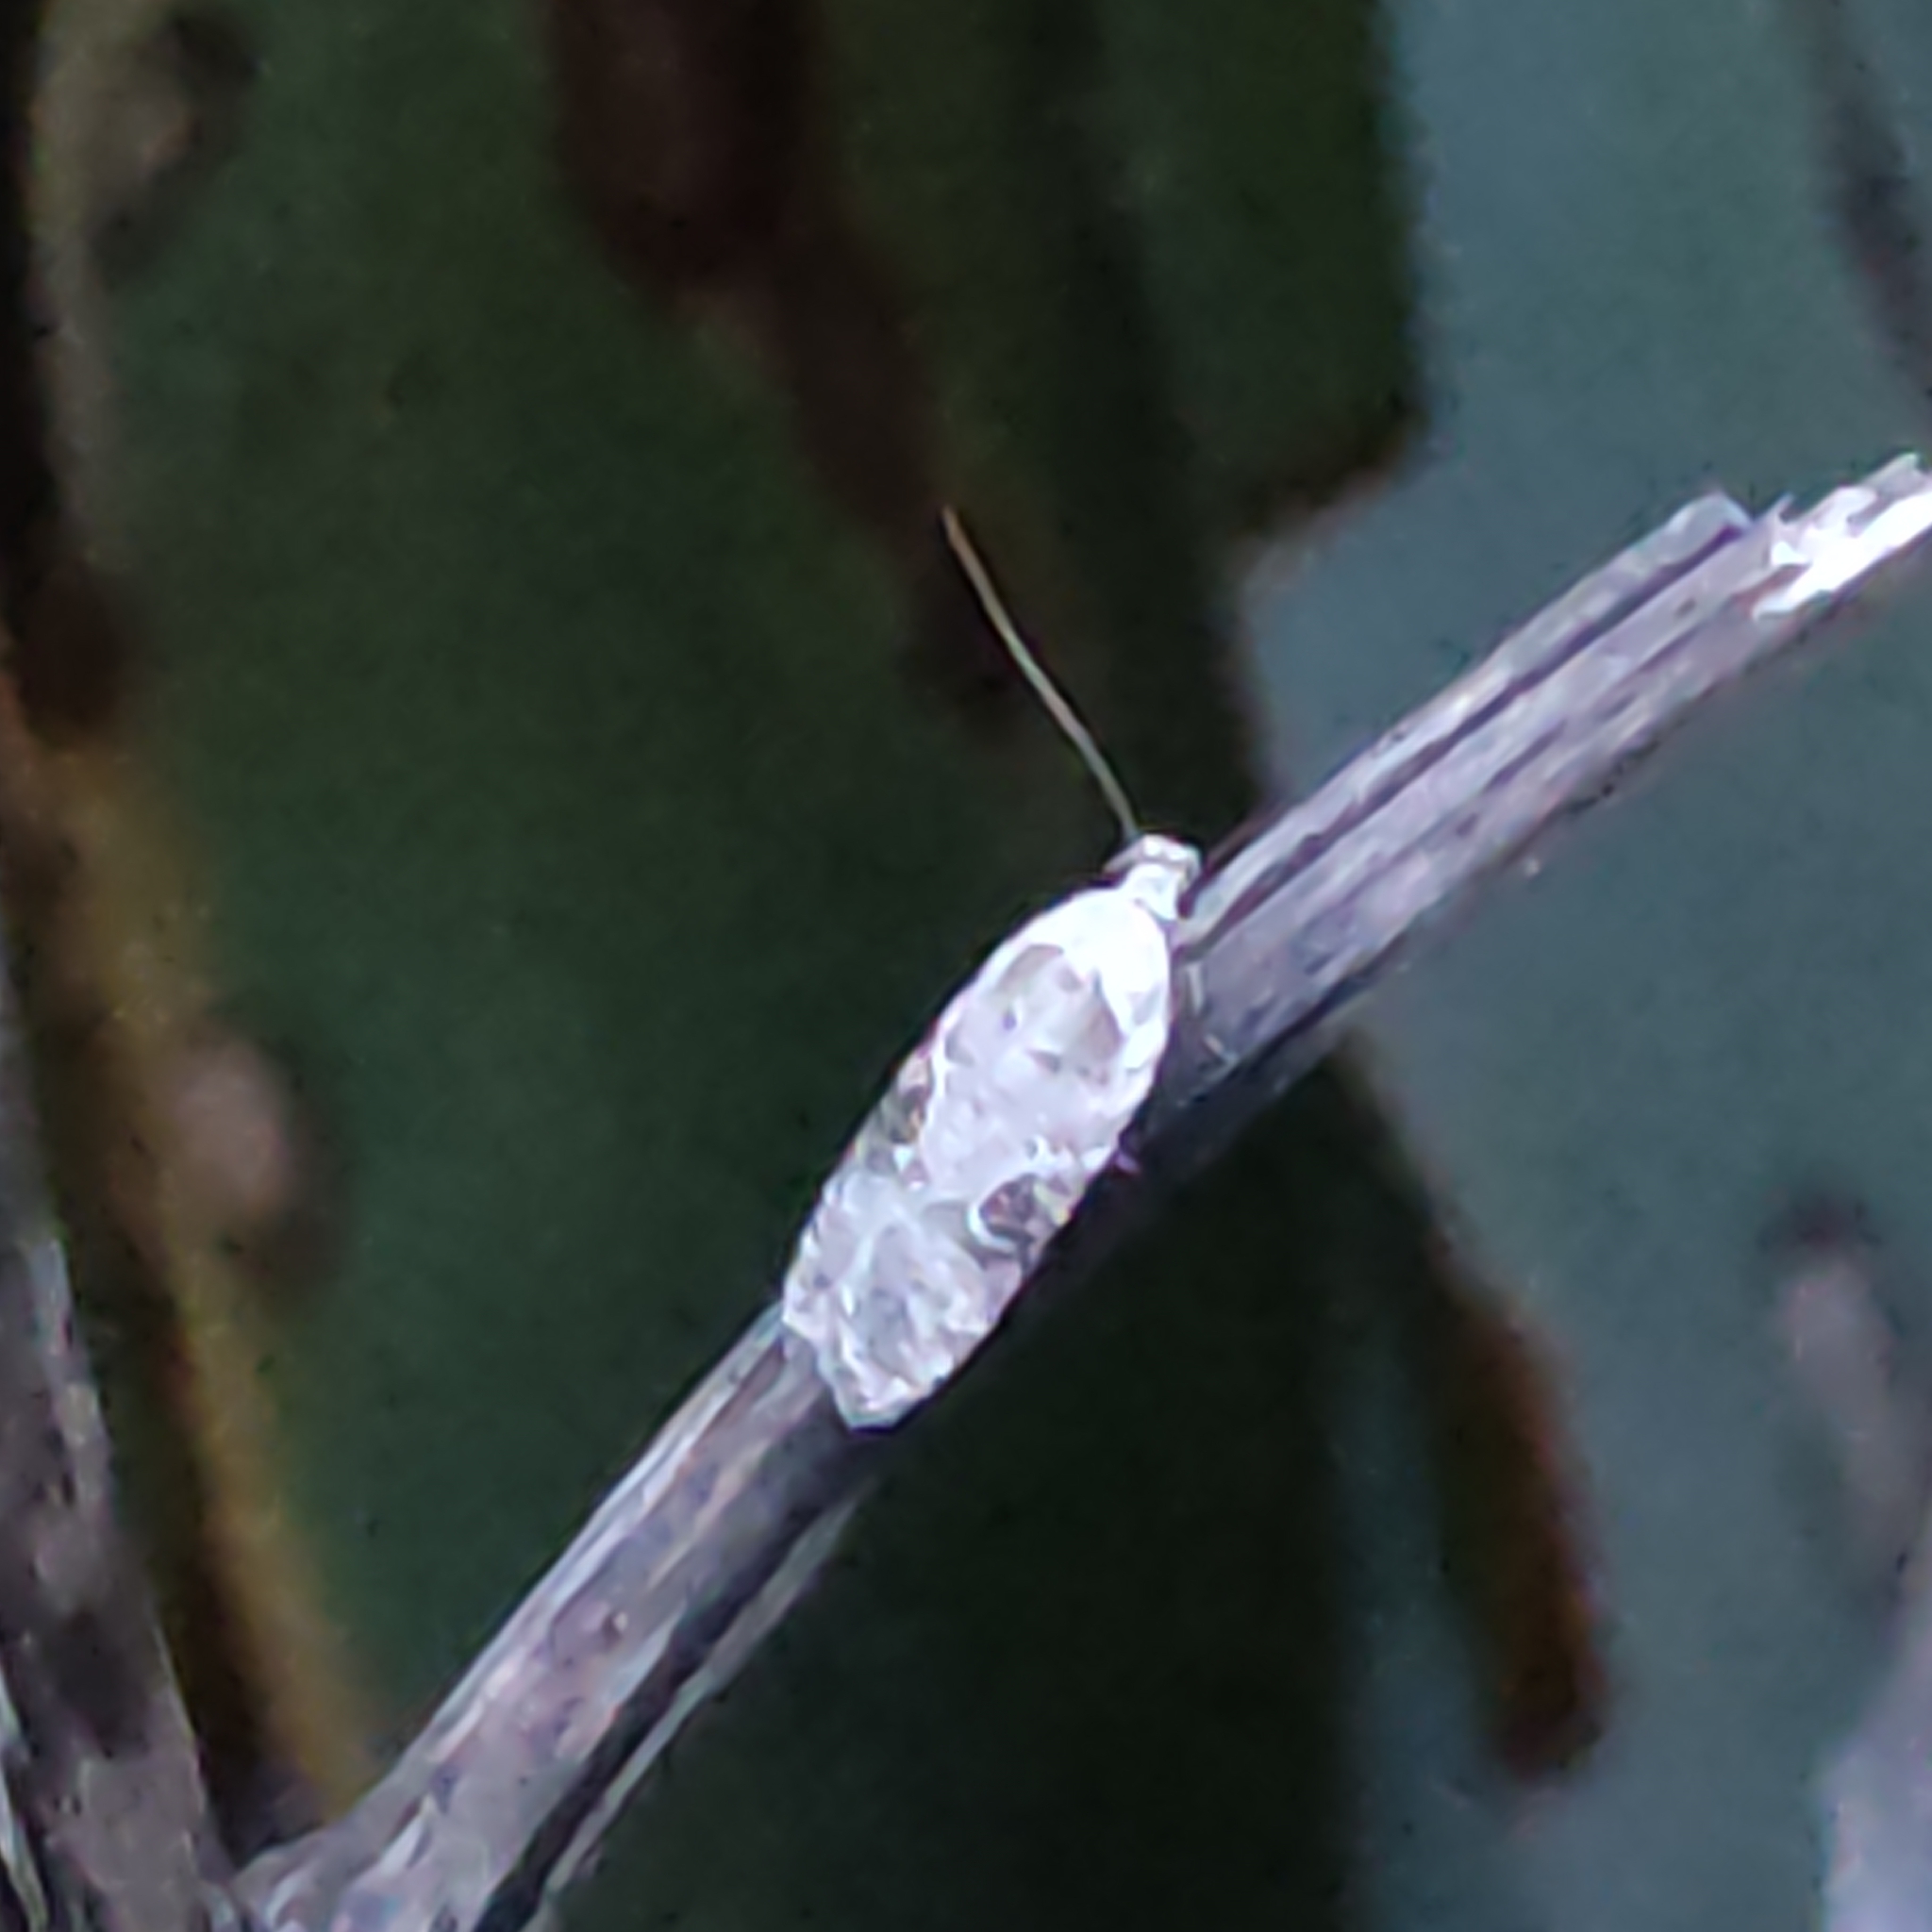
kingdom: Animalia
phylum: Arthropoda
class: Insecta
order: Lepidoptera
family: Depressariidae
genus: Agonopterix
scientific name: Agonopterix alstroemeriana
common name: Moth
